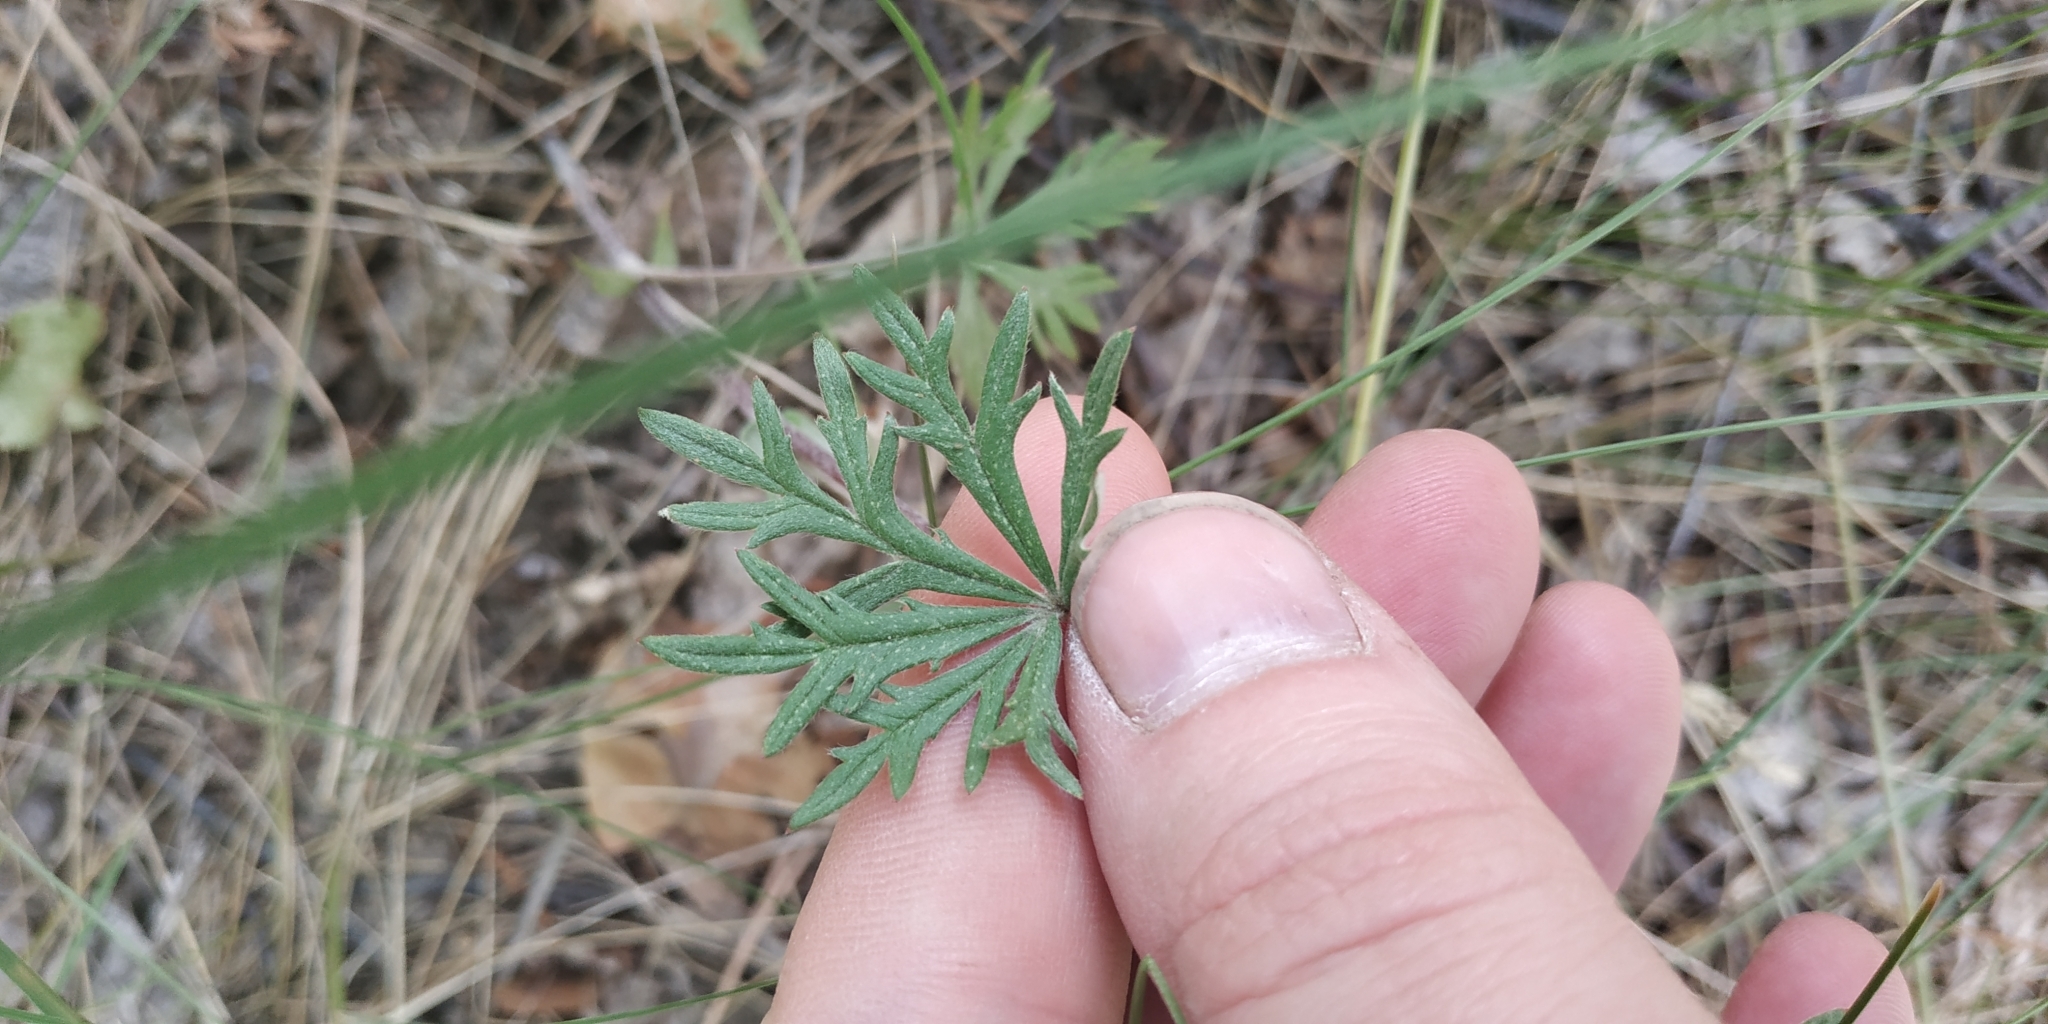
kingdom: Plantae
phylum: Tracheophyta
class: Magnoliopsida
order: Rosales
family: Rosaceae
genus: Potentilla
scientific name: Potentilla argentea
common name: Hoary cinquefoil
